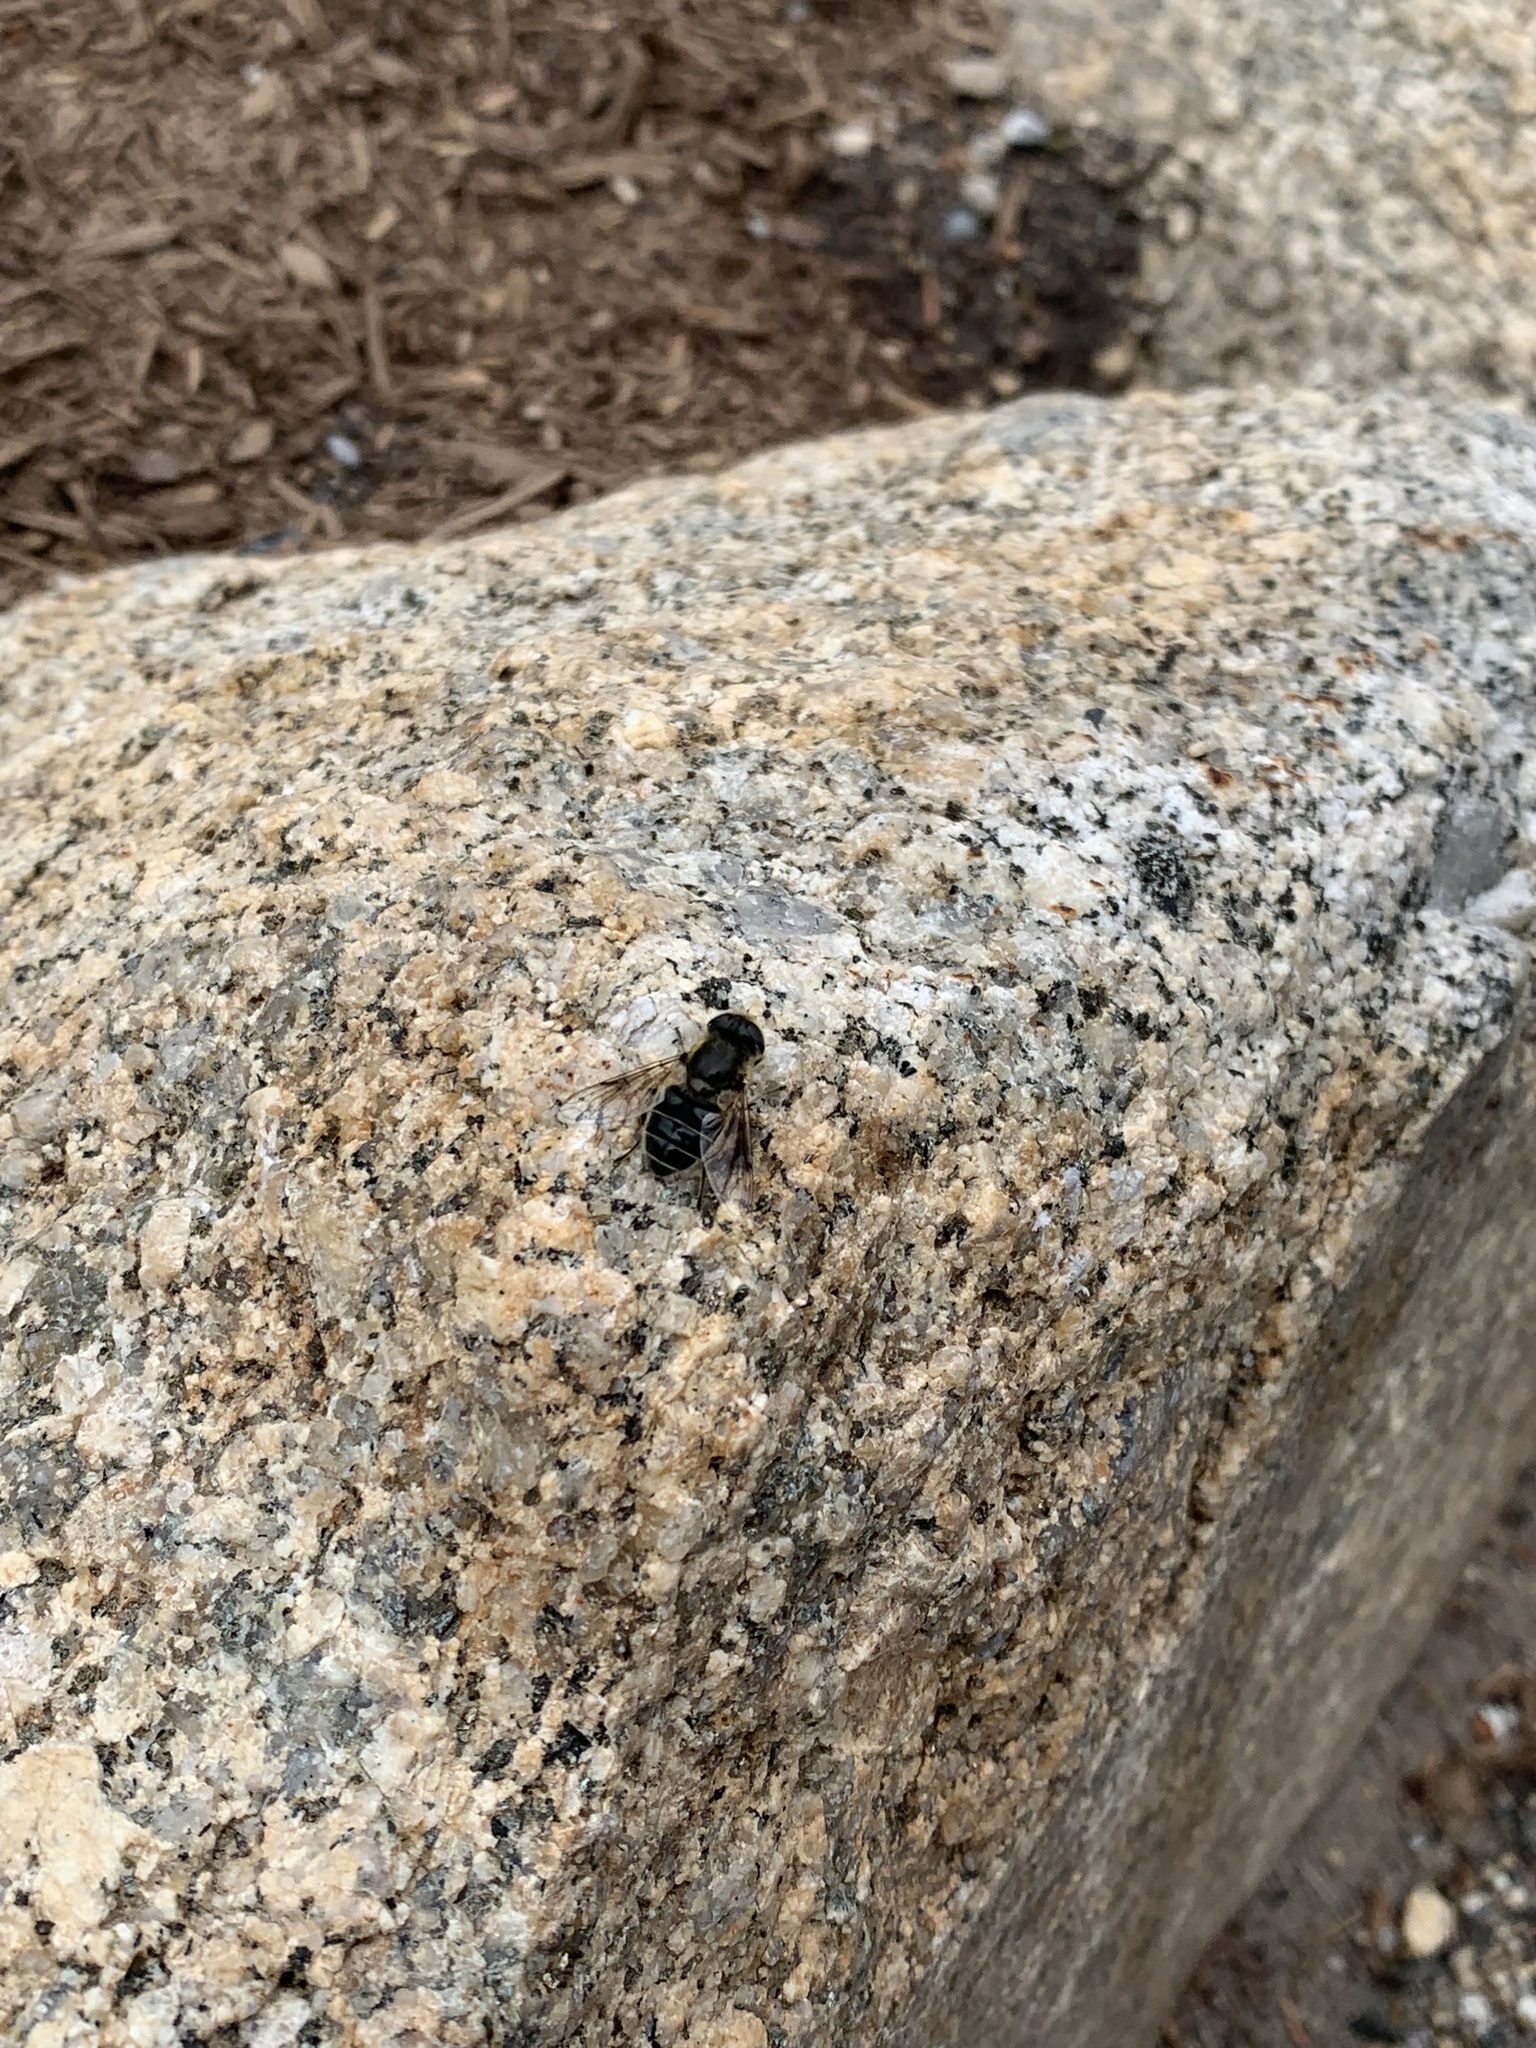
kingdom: Animalia
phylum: Arthropoda
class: Insecta
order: Diptera
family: Syrphidae
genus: Eoseristalis
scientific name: Eoseristalis
